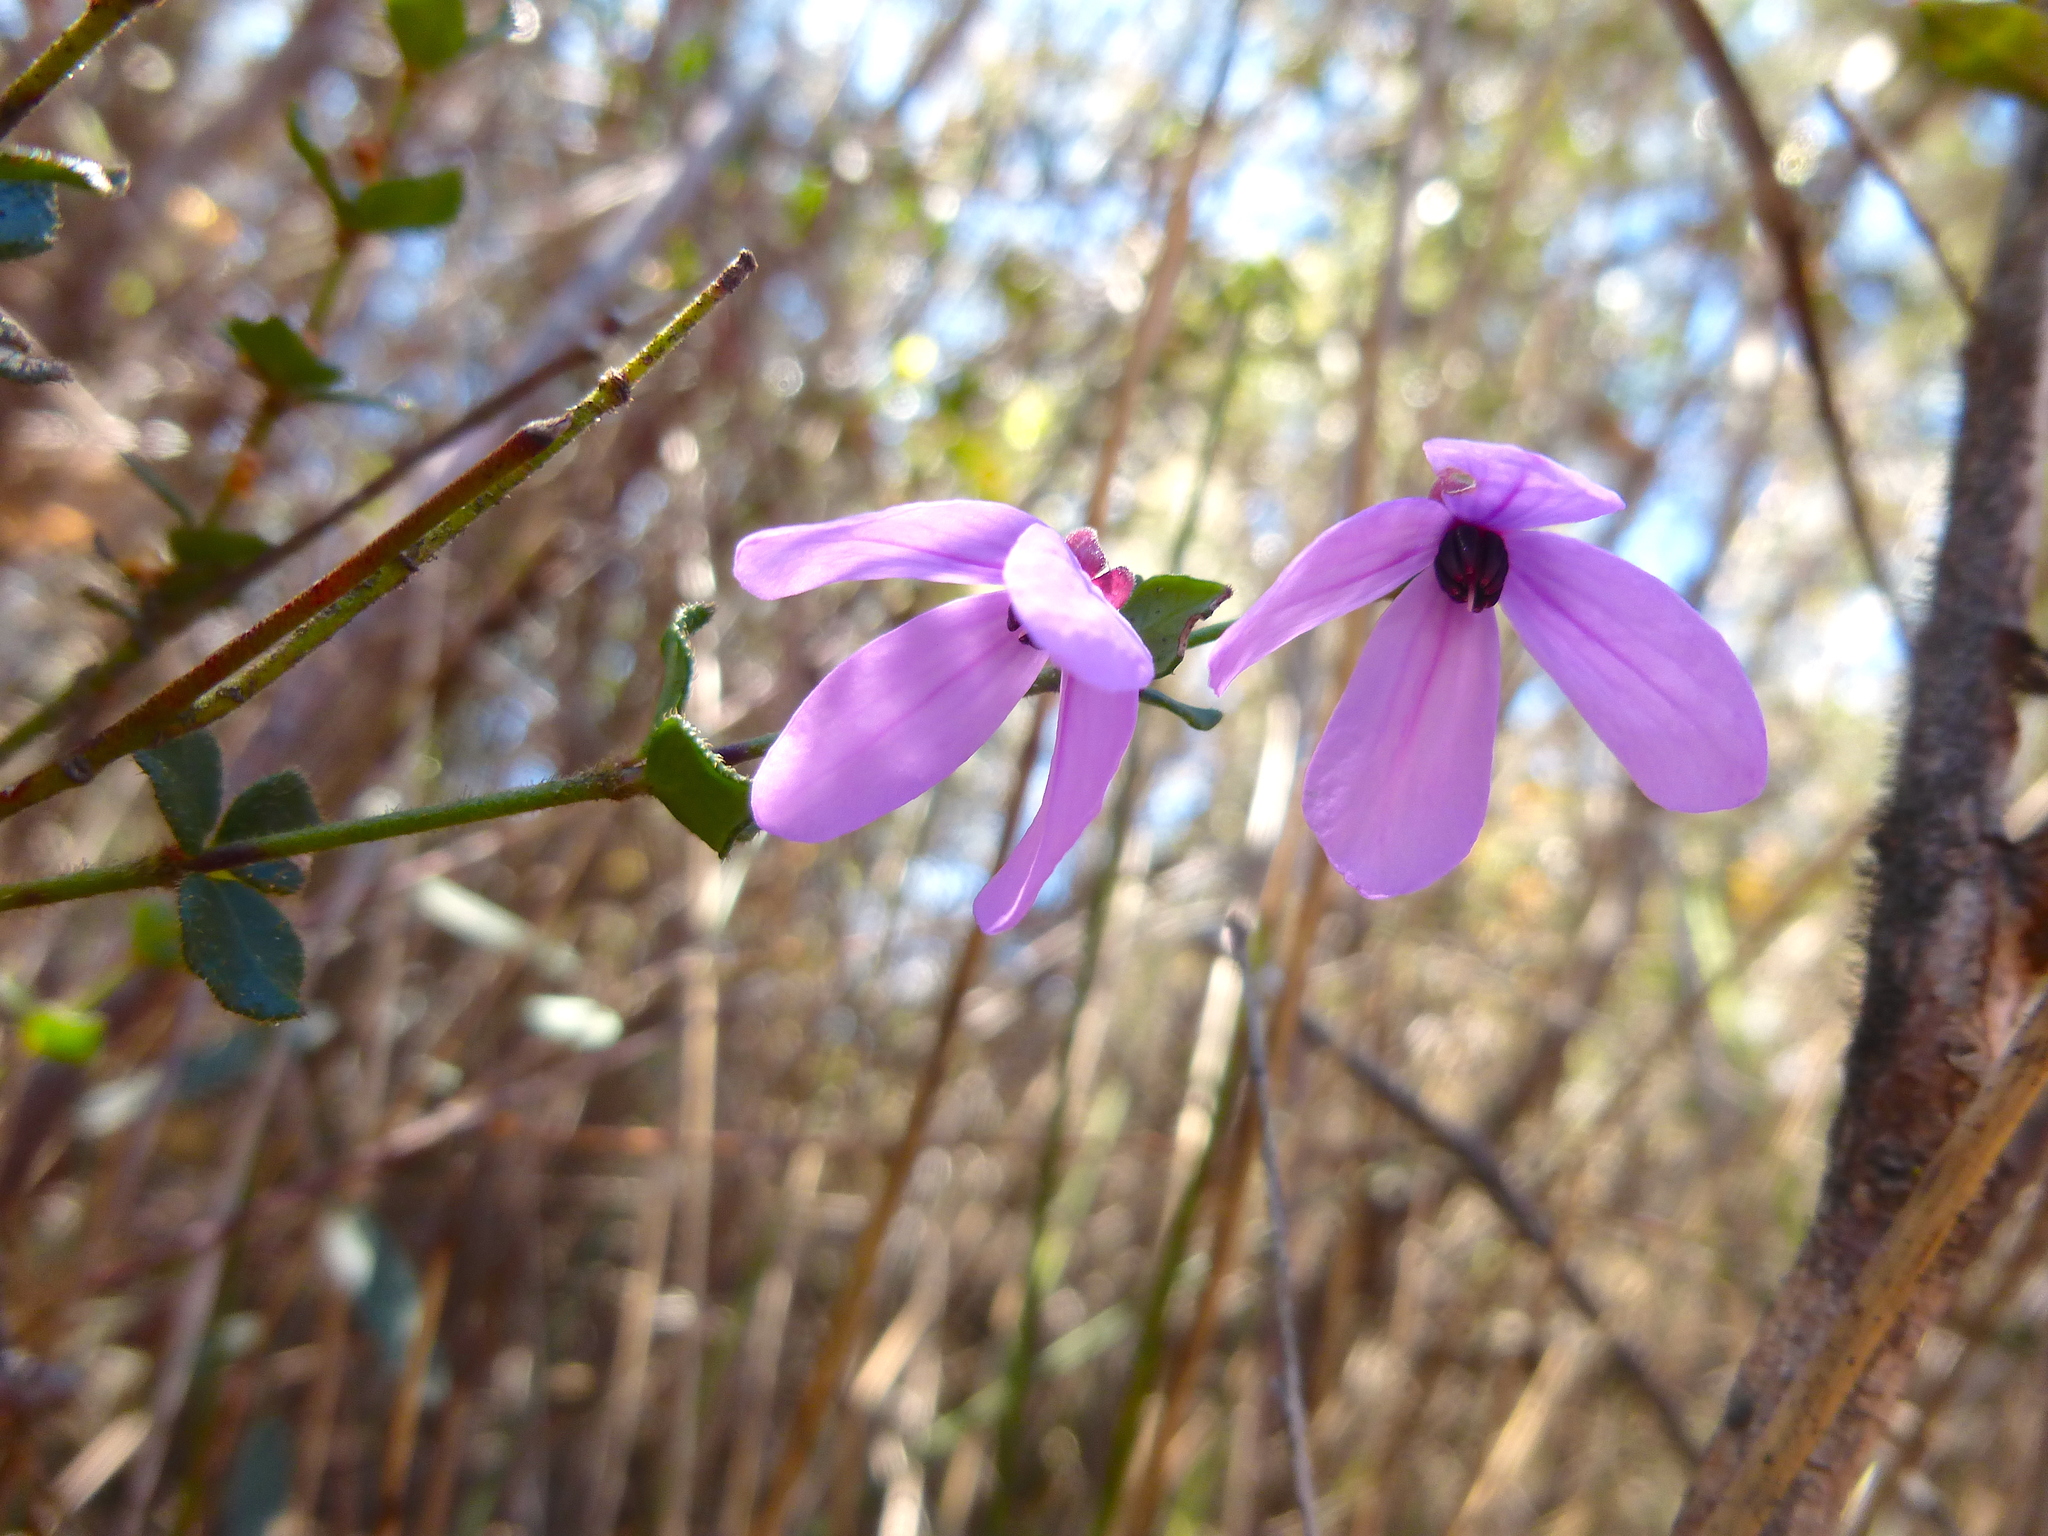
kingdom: Plantae
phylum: Tracheophyta
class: Magnoliopsida
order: Oxalidales
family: Elaeocarpaceae
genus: Tetratheca
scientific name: Tetratheca ciliata
